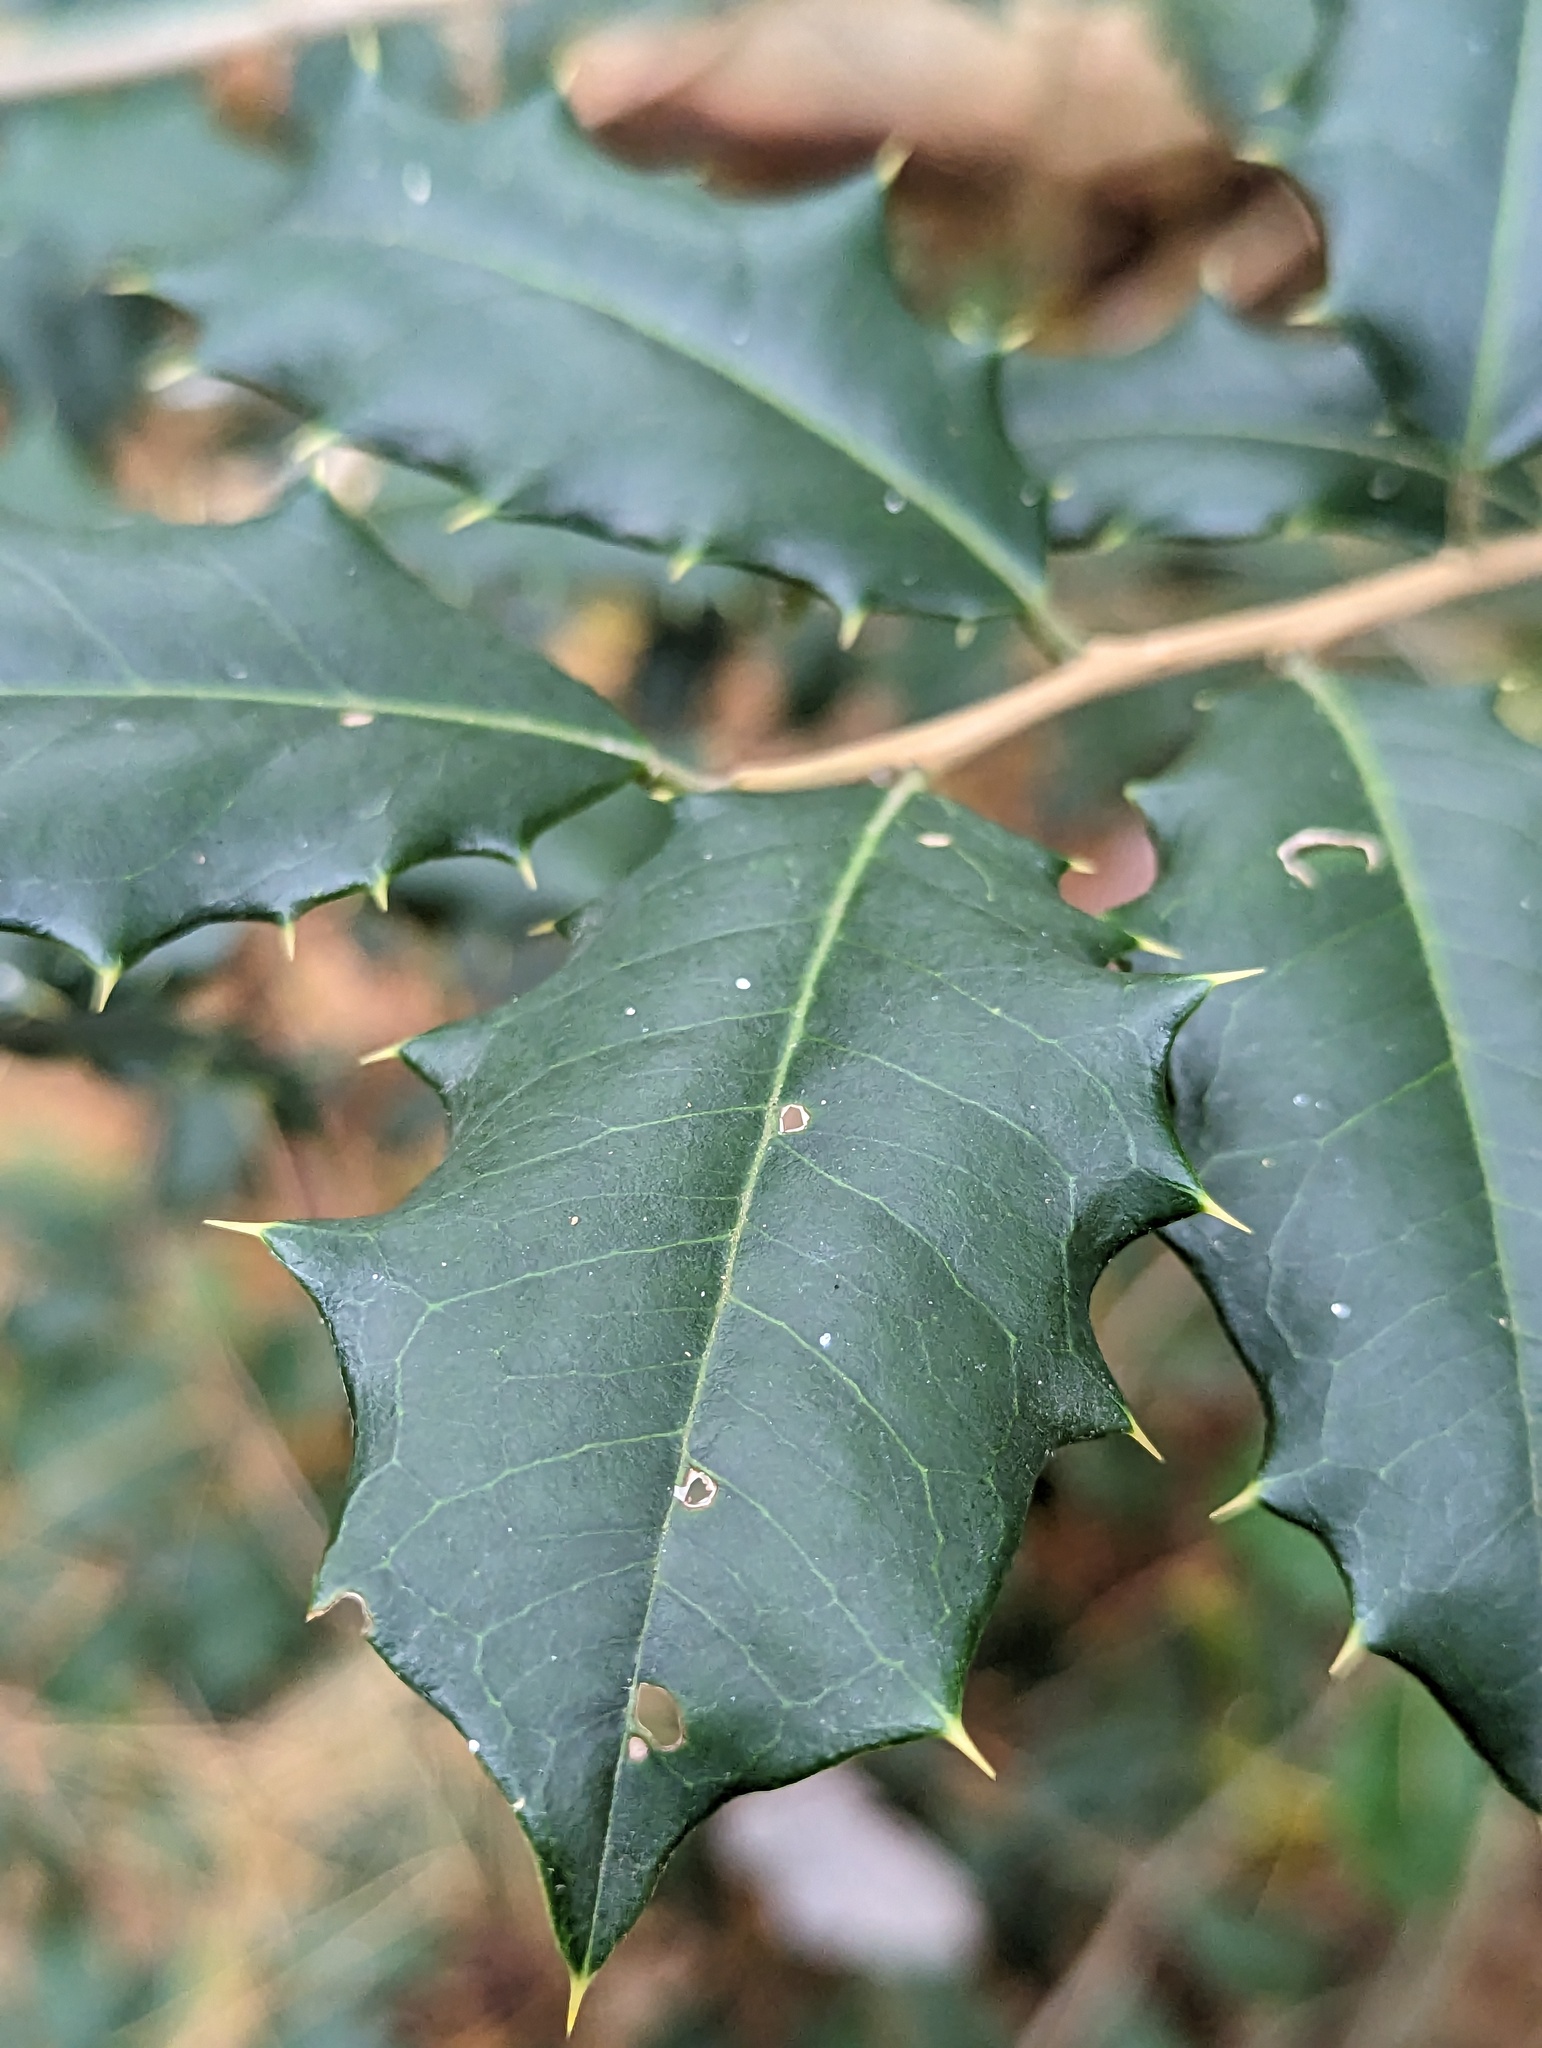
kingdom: Plantae
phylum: Tracheophyta
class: Magnoliopsida
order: Aquifoliales
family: Aquifoliaceae
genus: Ilex
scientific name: Ilex opaca
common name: American holly
